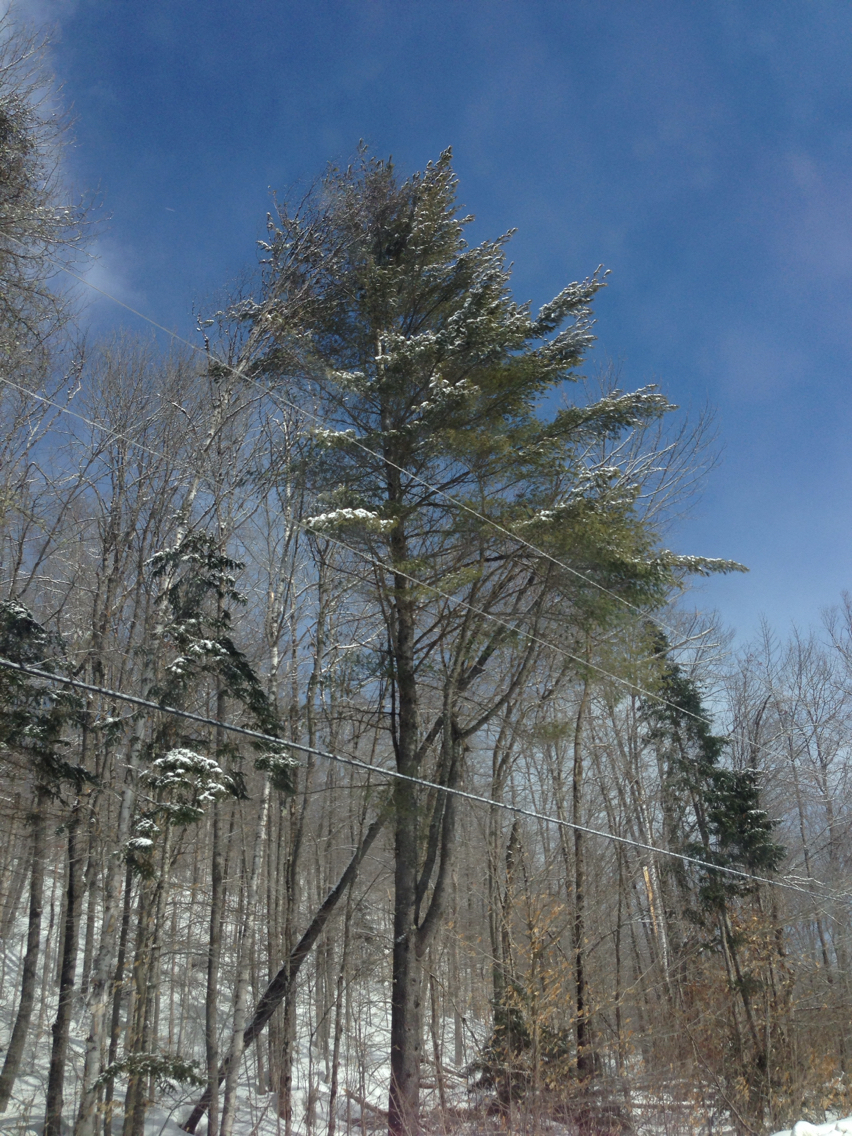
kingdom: Plantae
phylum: Tracheophyta
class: Pinopsida
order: Pinales
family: Pinaceae
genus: Pinus
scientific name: Pinus strobus
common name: Weymouth pine
